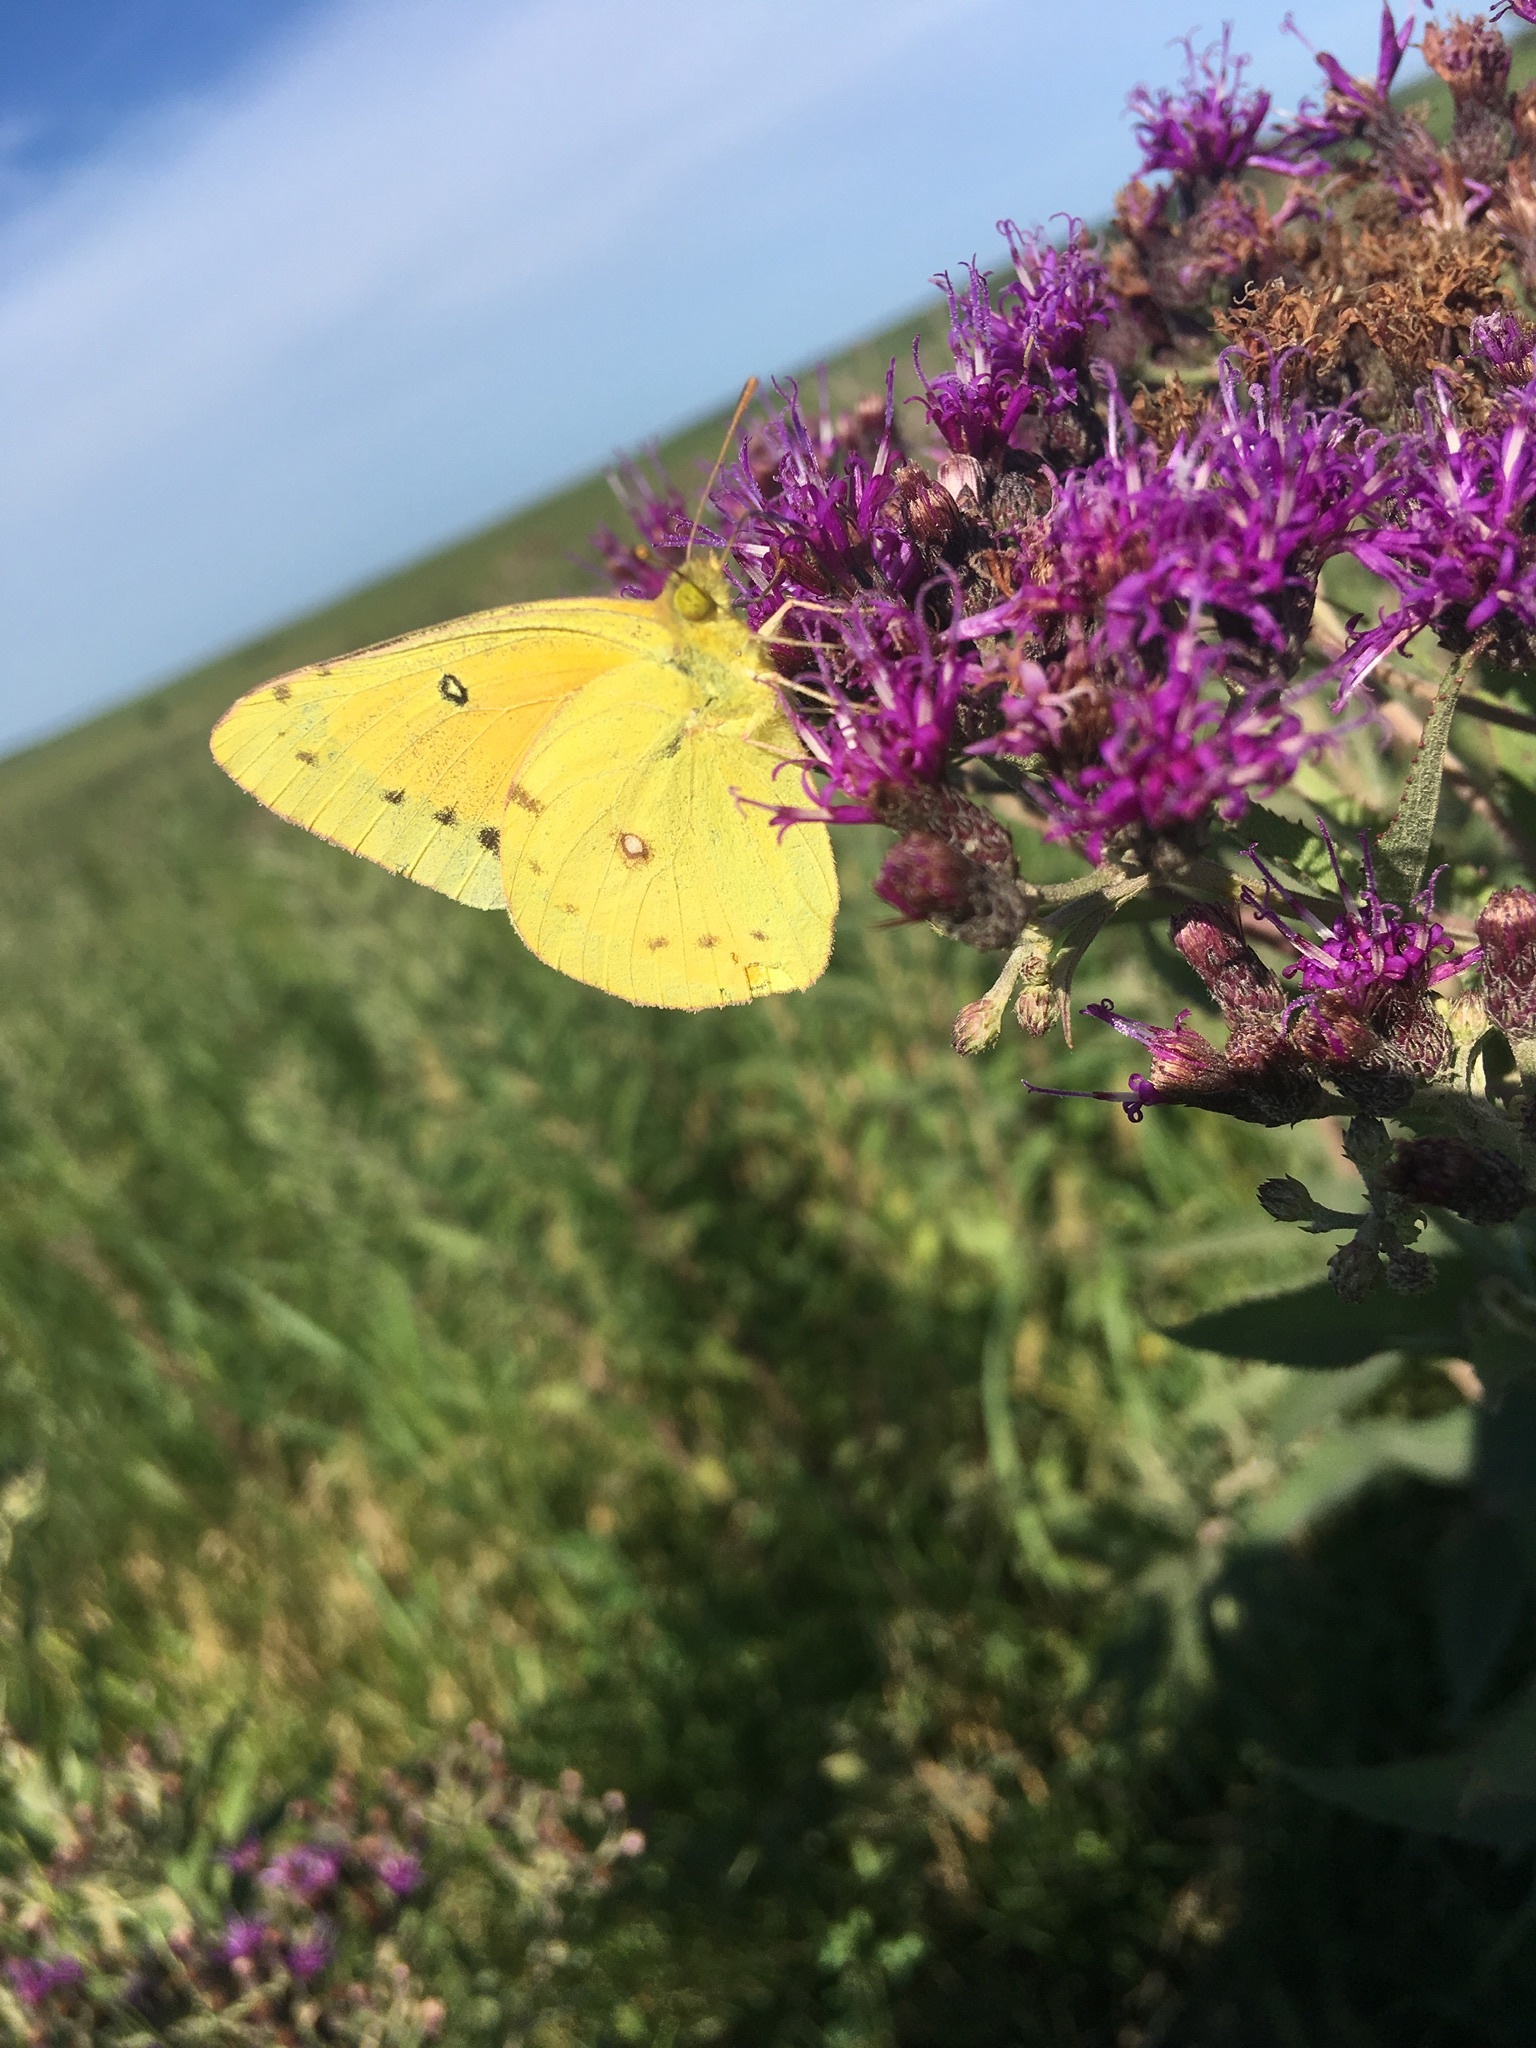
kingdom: Animalia
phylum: Arthropoda
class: Insecta
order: Lepidoptera
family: Pieridae
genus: Colias
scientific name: Colias eurytheme
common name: Alfalfa butterfly
